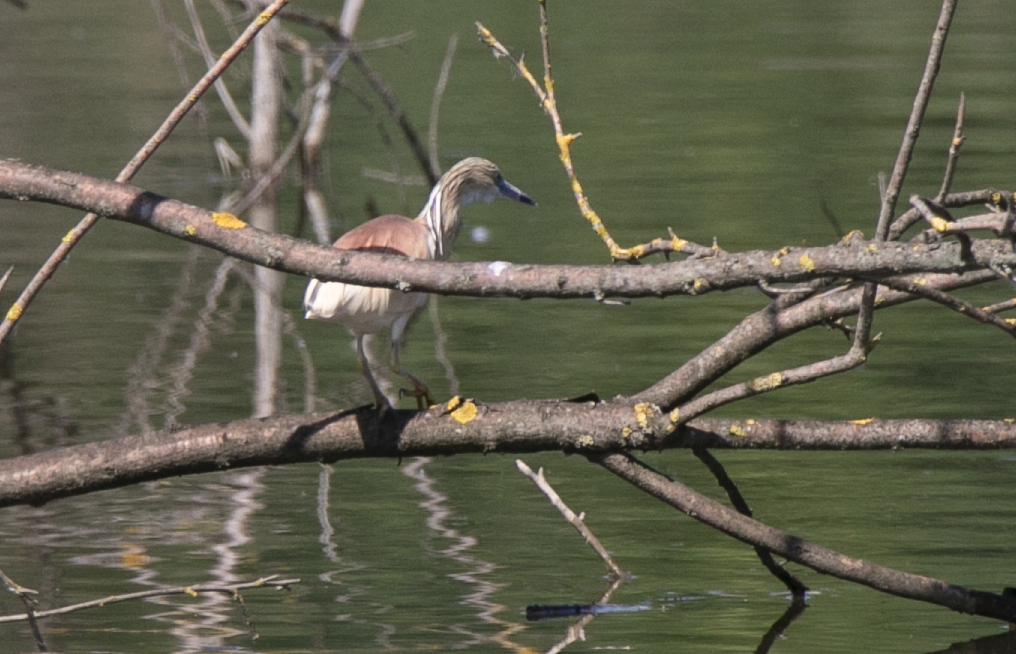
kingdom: Animalia
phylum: Chordata
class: Aves
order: Pelecaniformes
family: Ardeidae
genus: Ardeola
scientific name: Ardeola ralloides
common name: Squacco heron
